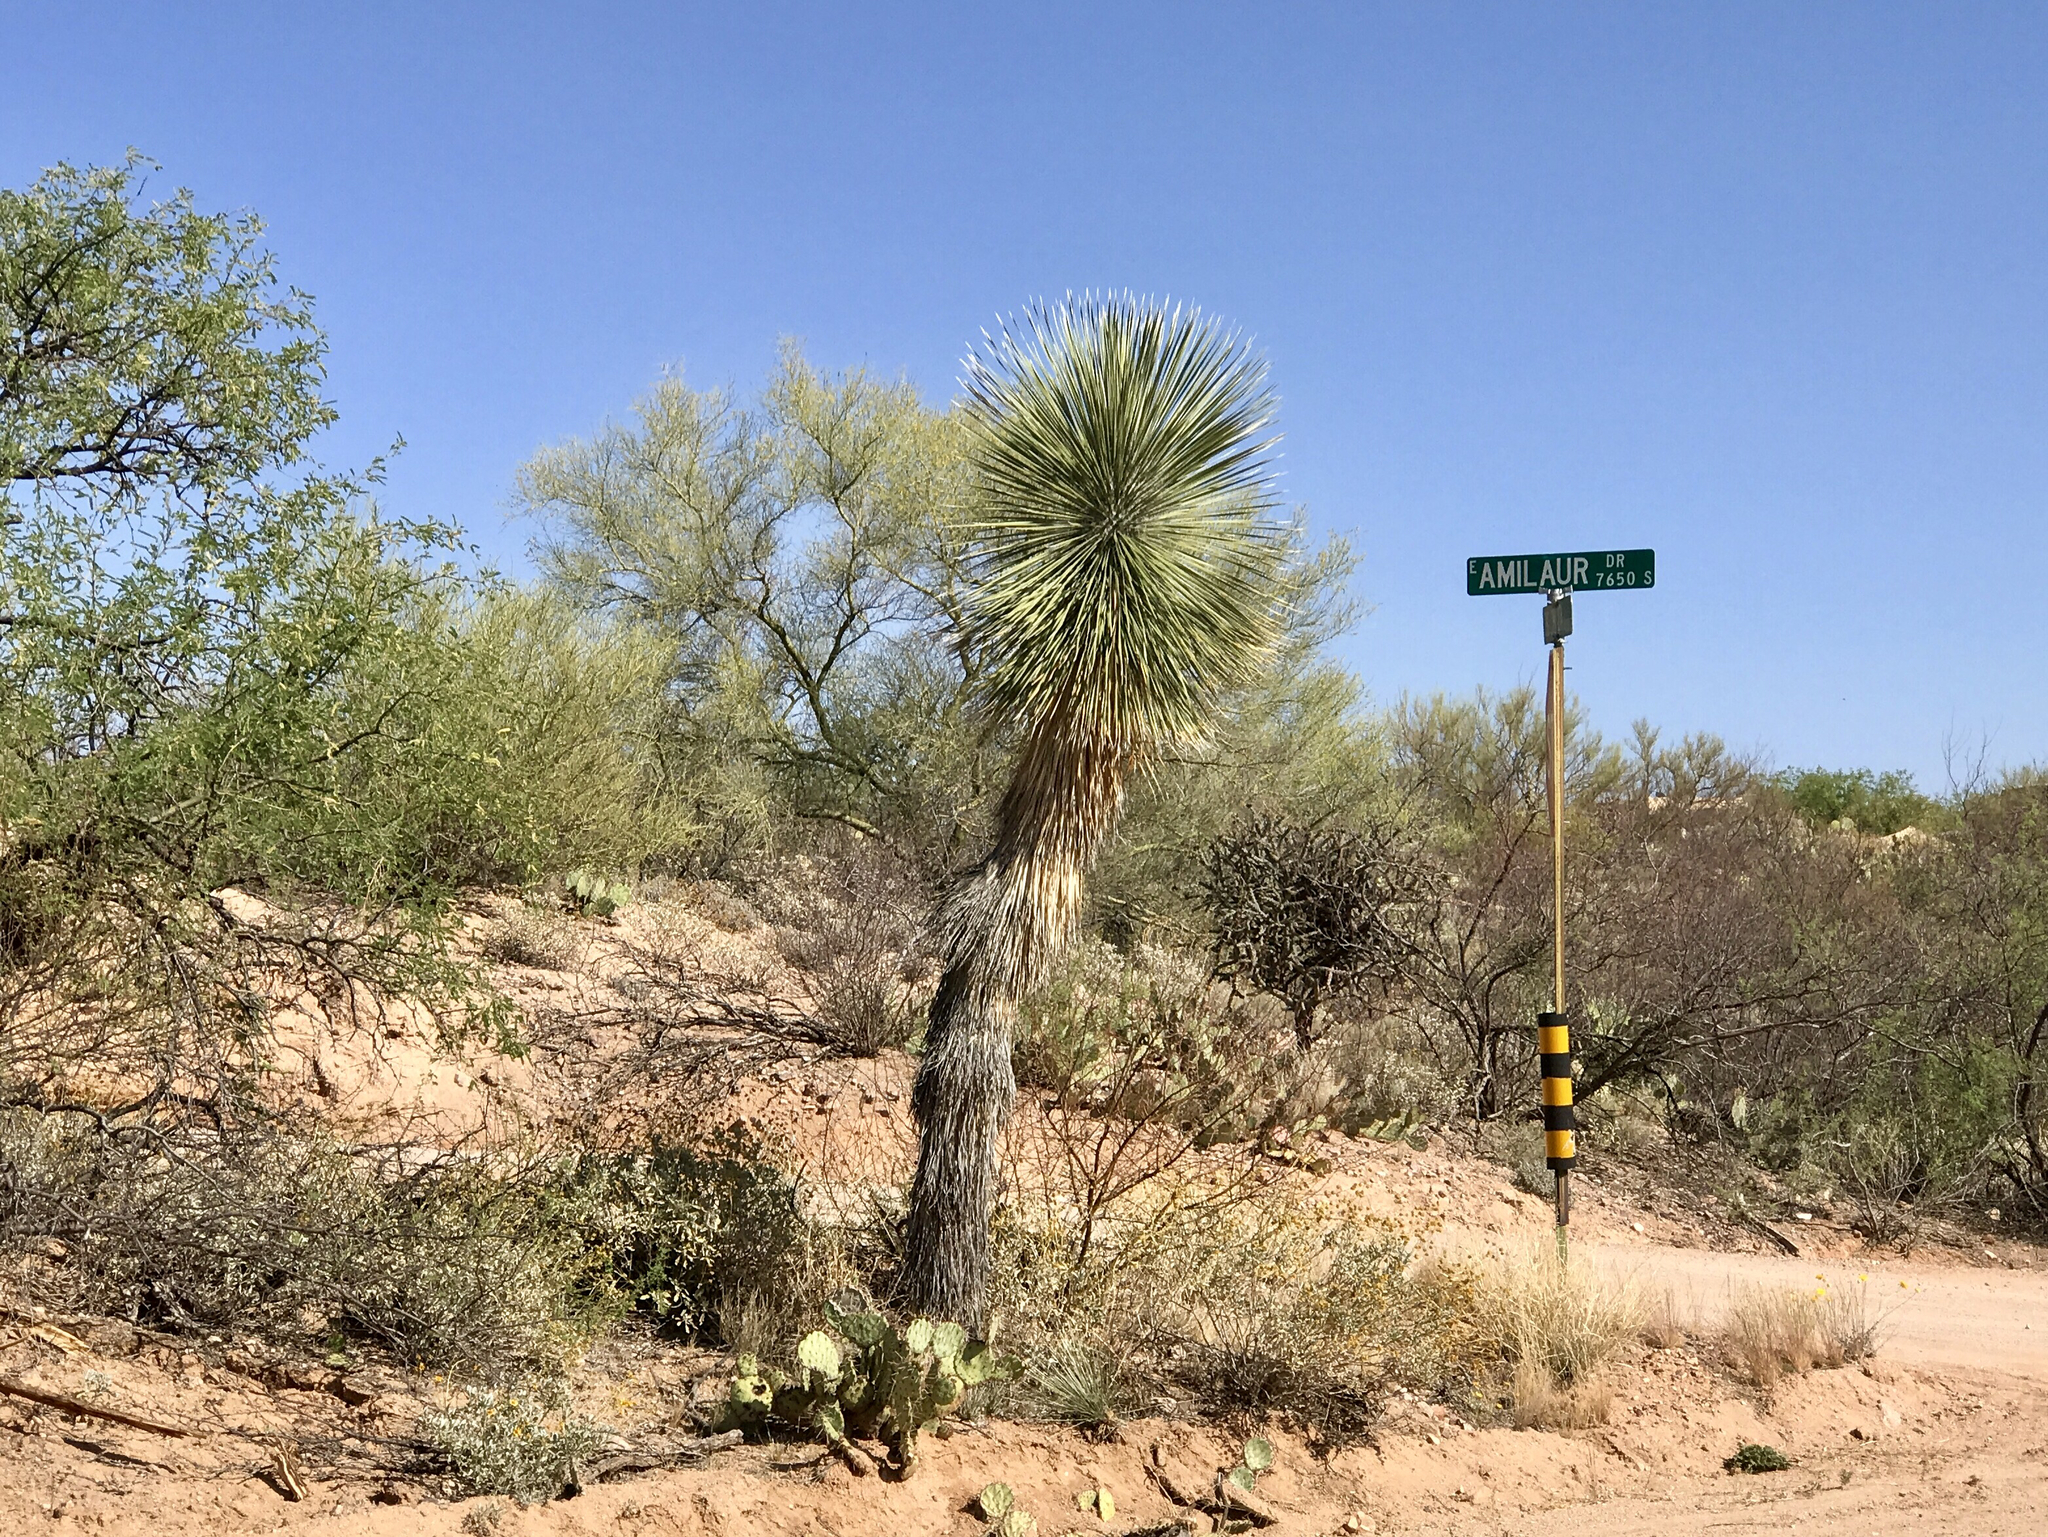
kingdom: Plantae
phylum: Tracheophyta
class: Liliopsida
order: Asparagales
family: Asparagaceae
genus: Yucca
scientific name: Yucca elata
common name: Palmella
